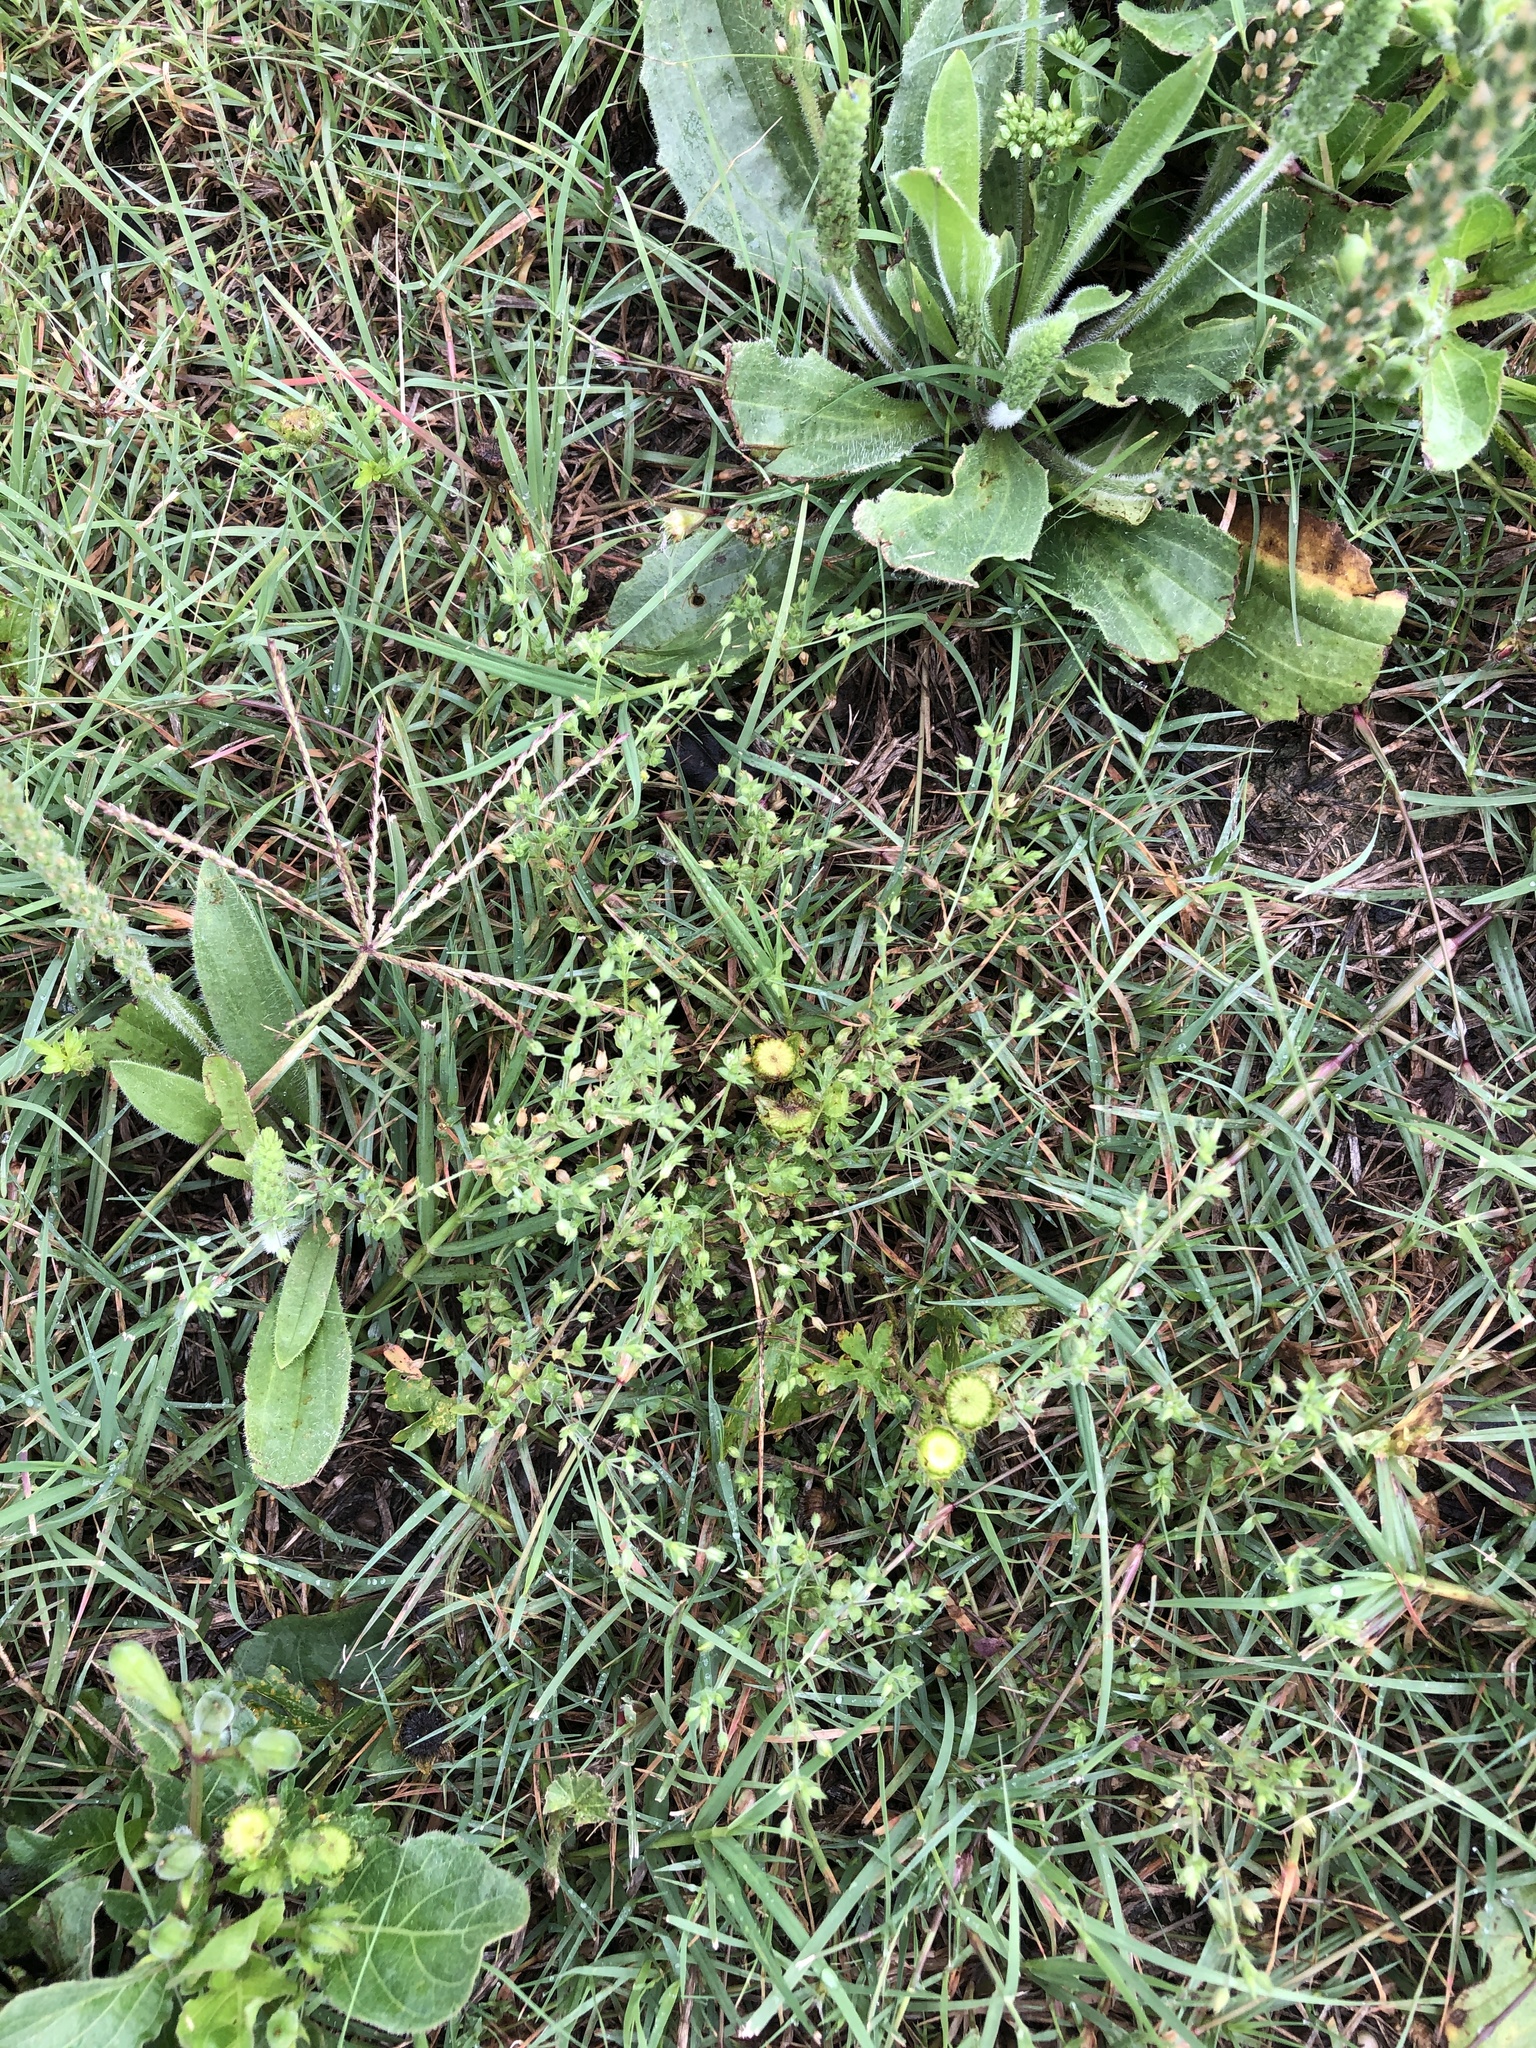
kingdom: Plantae
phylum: Tracheophyta
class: Magnoliopsida
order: Caryophyllales
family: Caryophyllaceae
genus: Arenaria
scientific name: Arenaria serpyllifolia
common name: Thyme-leaved sandwort
